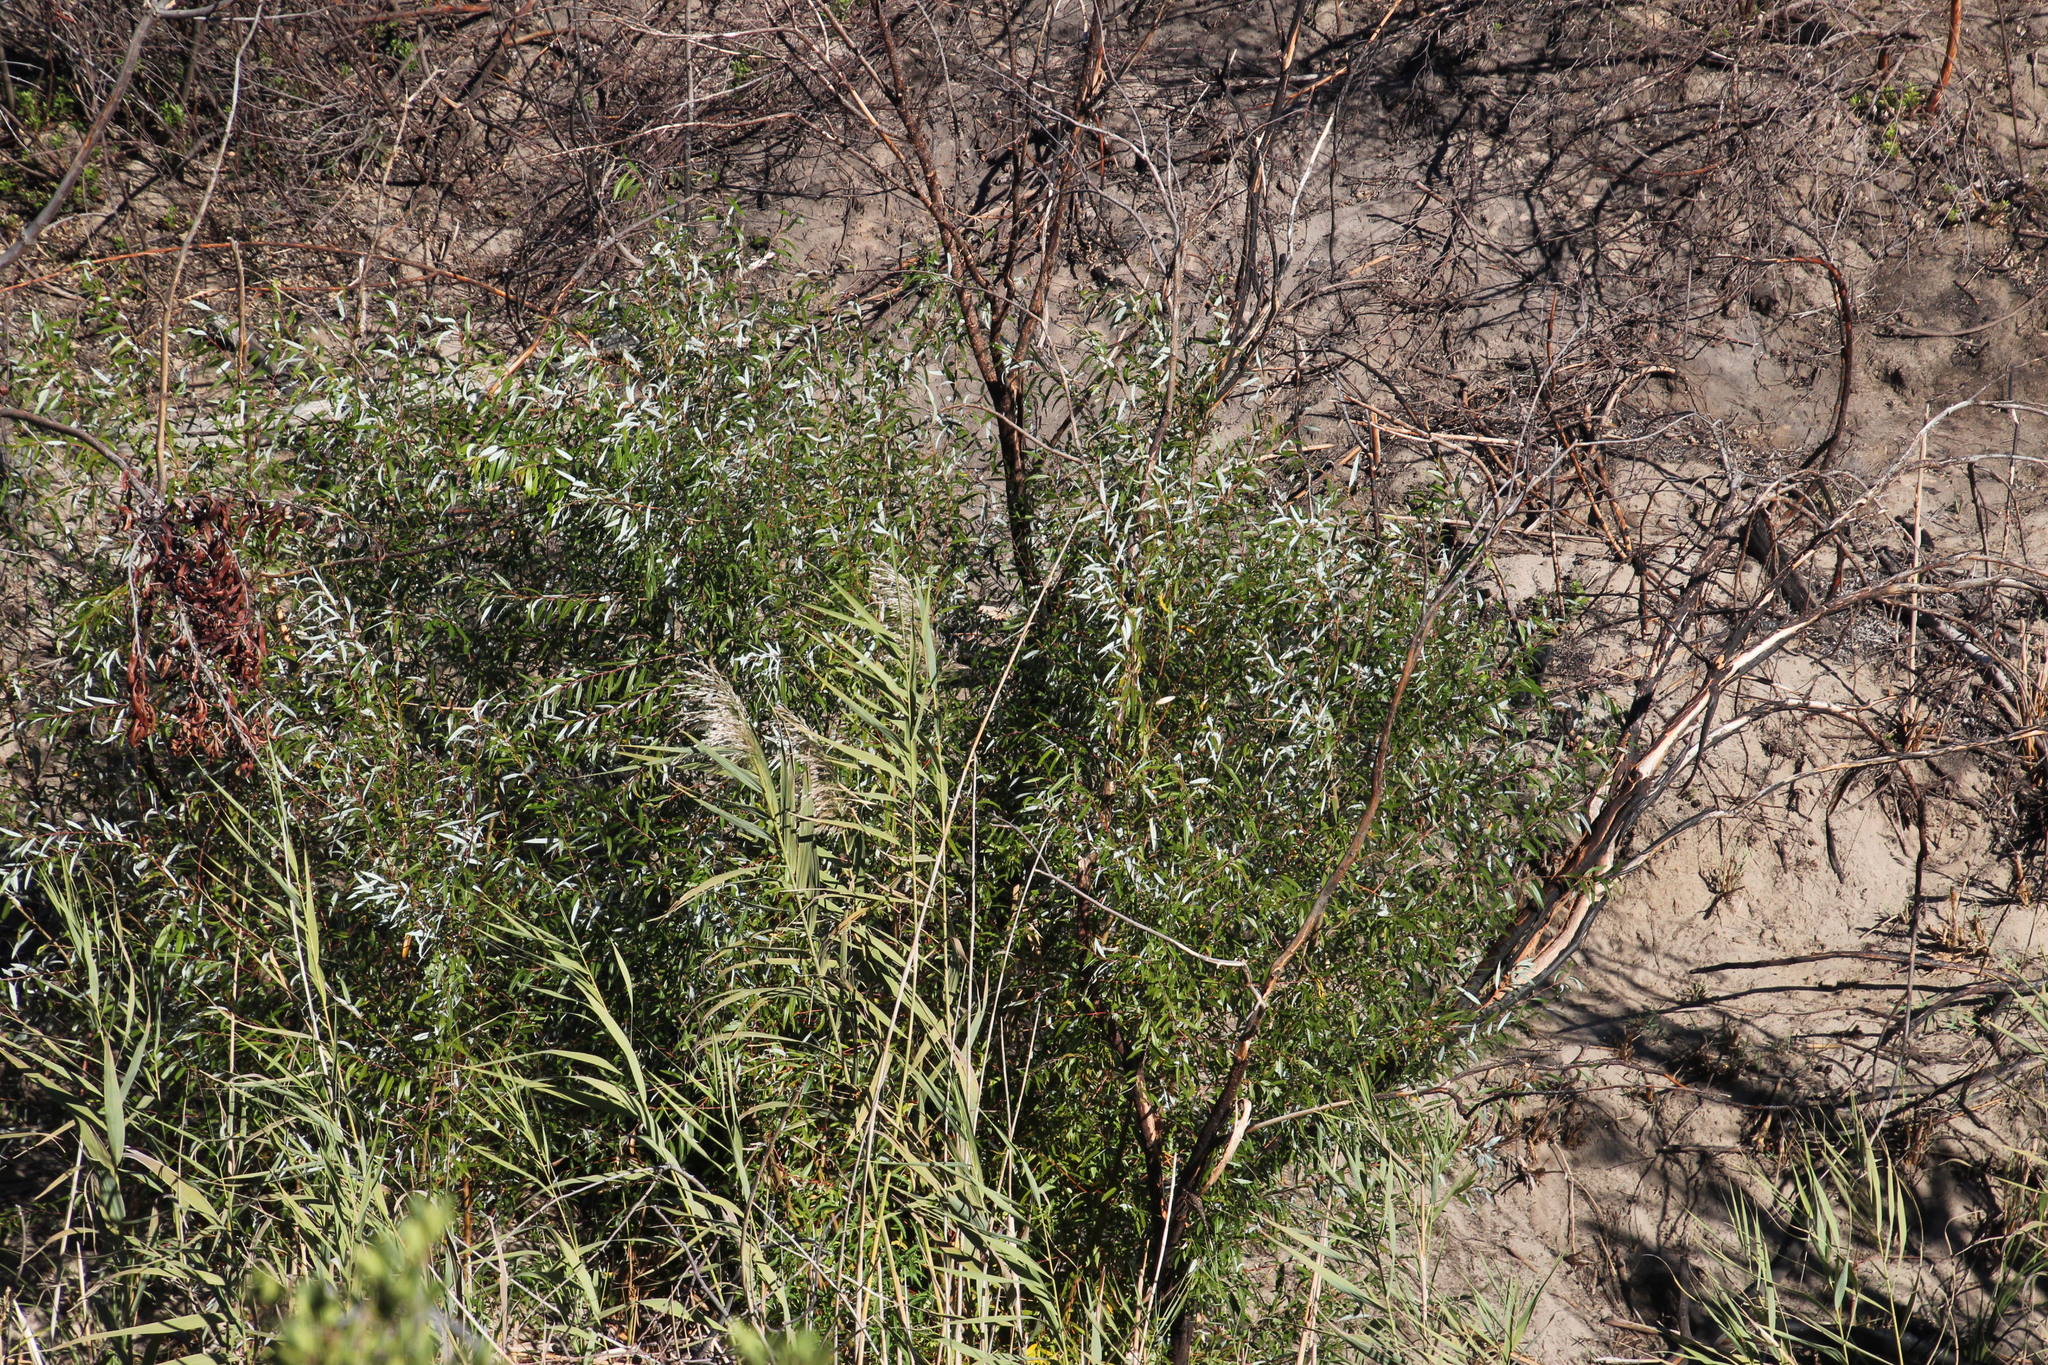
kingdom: Plantae
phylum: Tracheophyta
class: Magnoliopsida
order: Malpighiales
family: Salicaceae
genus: Salix
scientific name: Salix mucronata
